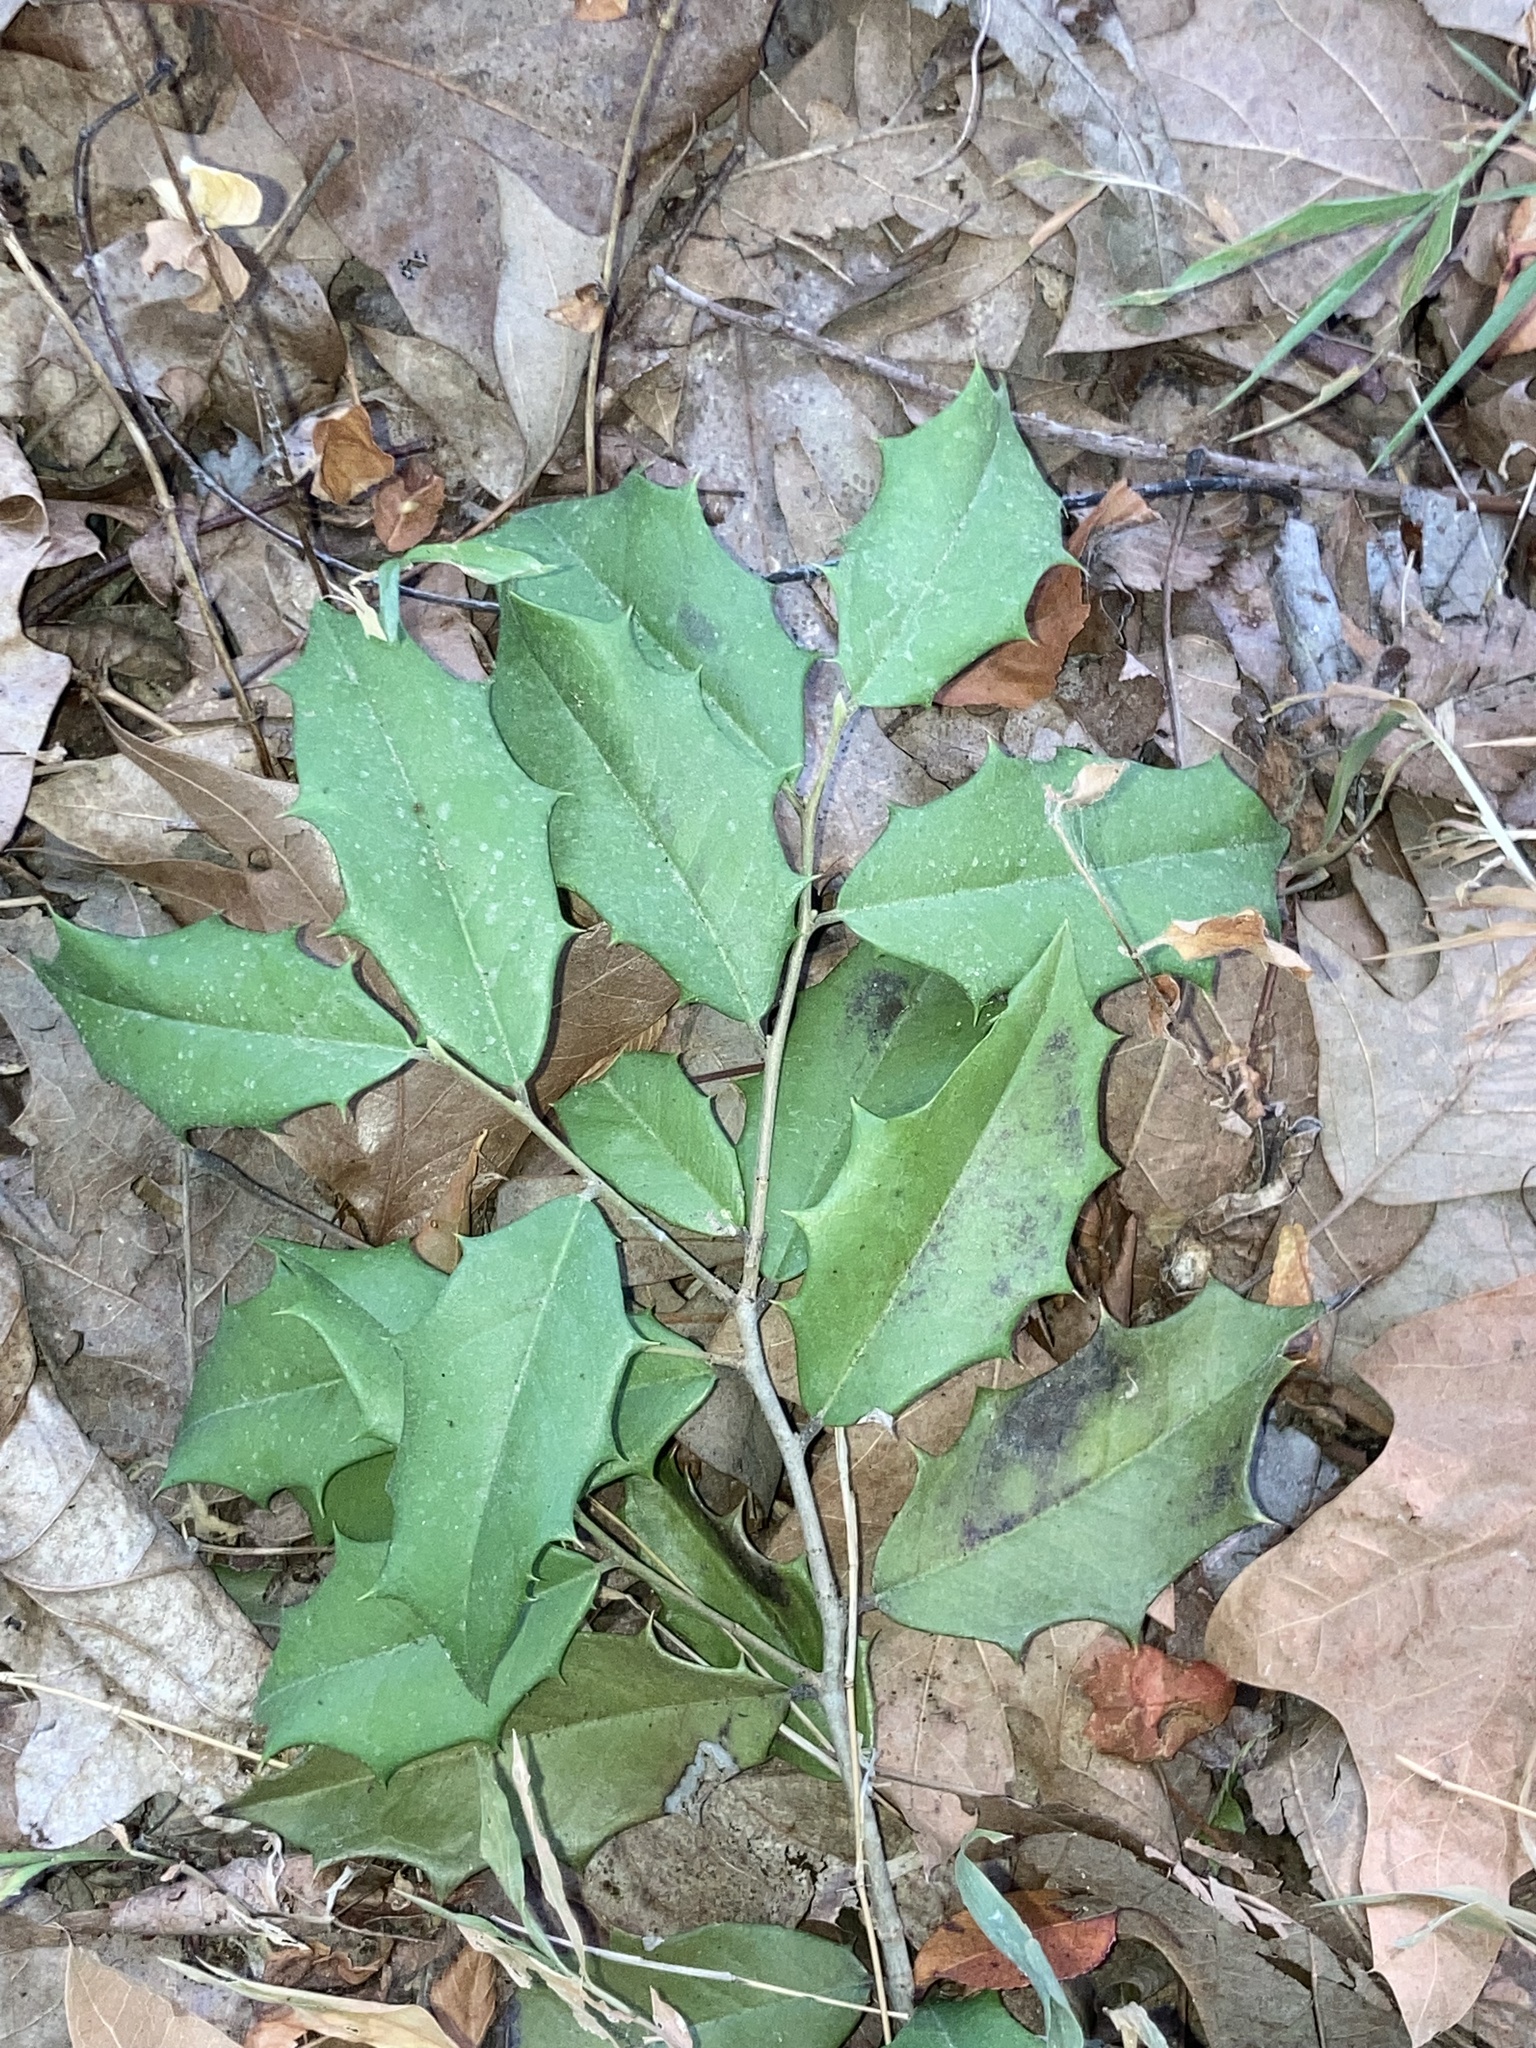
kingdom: Plantae
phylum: Tracheophyta
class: Magnoliopsida
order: Aquifoliales
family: Aquifoliaceae
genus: Ilex
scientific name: Ilex opaca
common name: American holly
